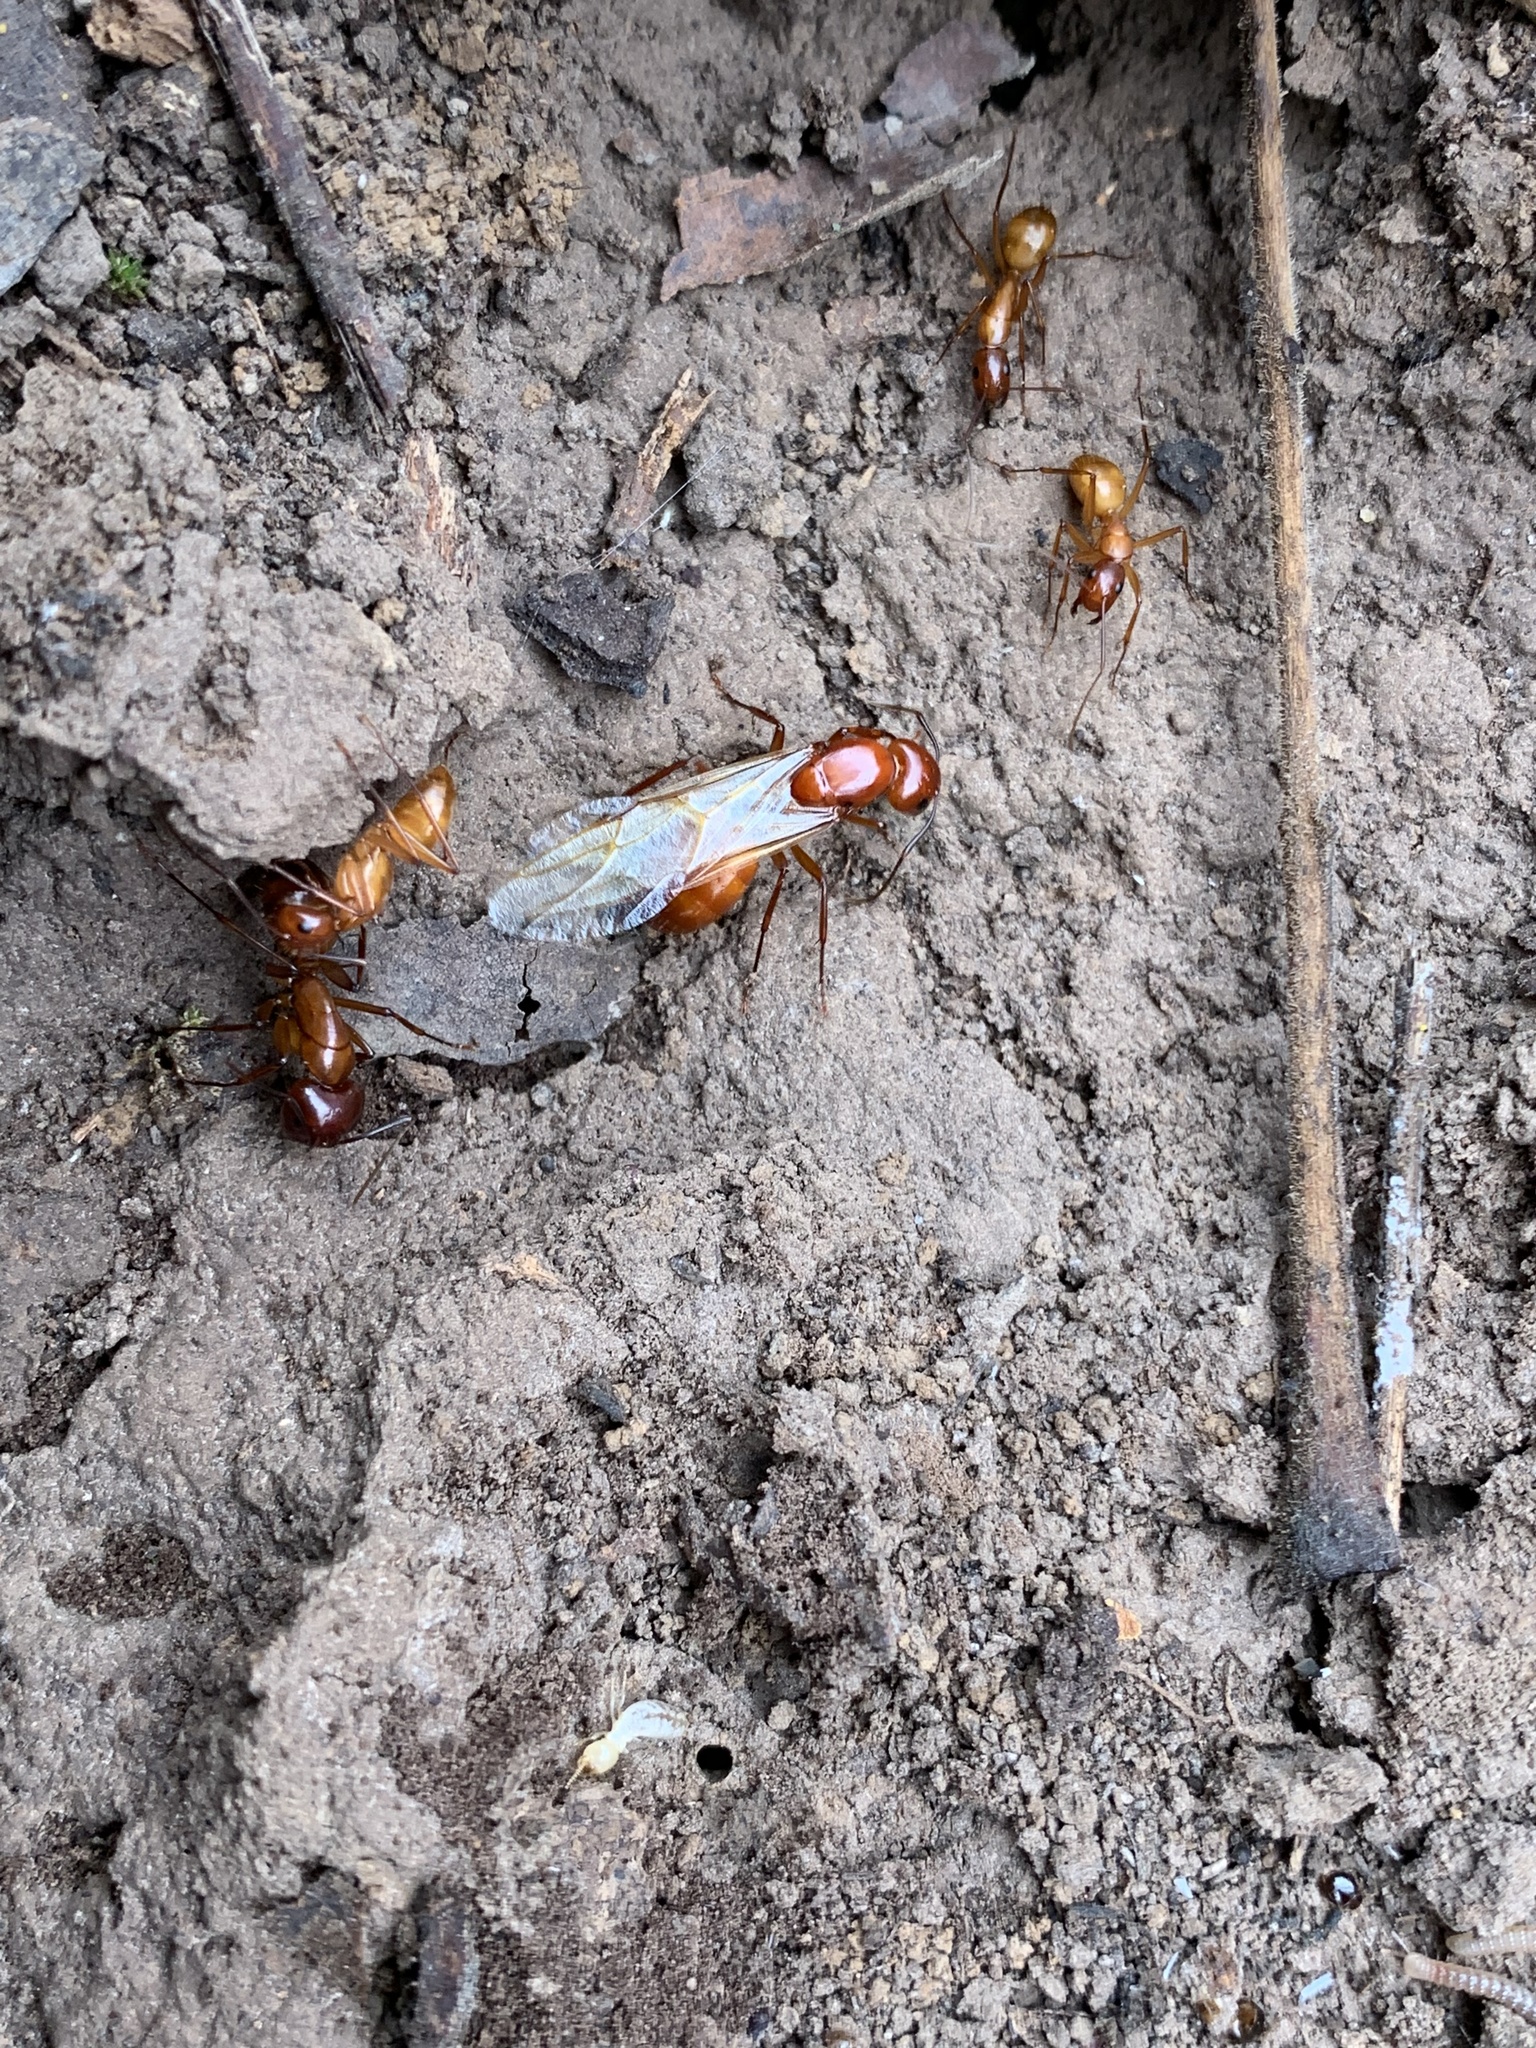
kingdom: Animalia
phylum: Arthropoda
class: Insecta
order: Hymenoptera
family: Formicidae
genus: Camponotus
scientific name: Camponotus castaneus
